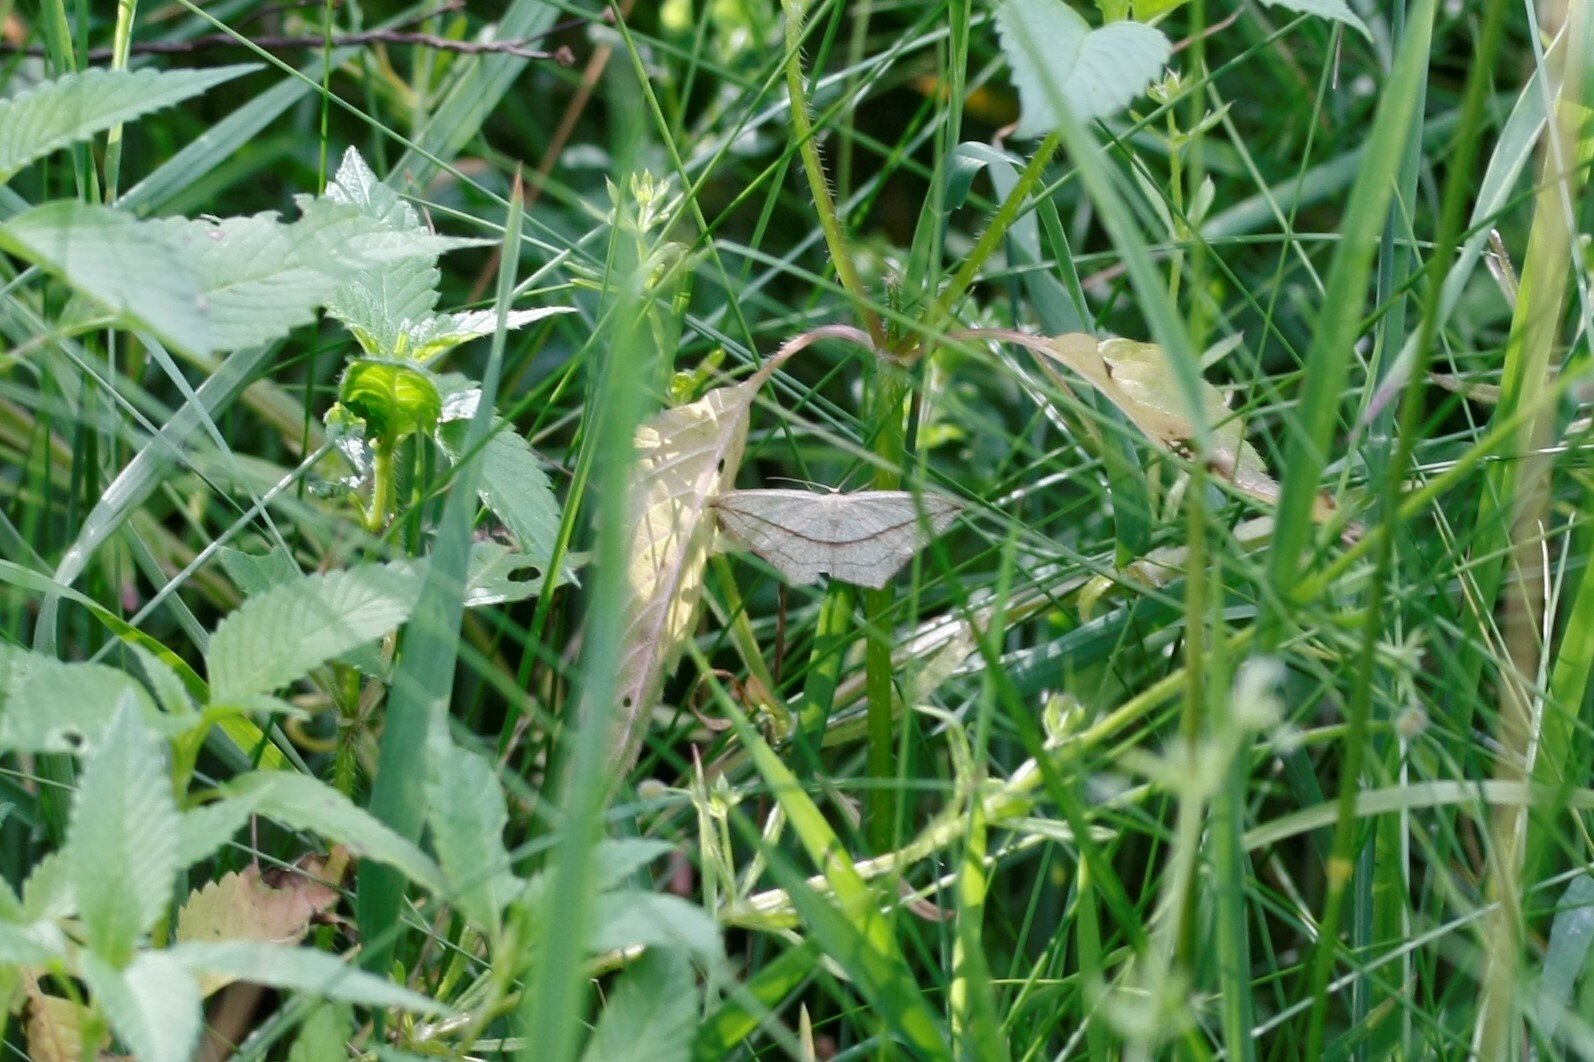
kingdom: Animalia
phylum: Arthropoda
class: Insecta
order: Lepidoptera
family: Geometridae
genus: Timandra
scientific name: Timandra comae
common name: Blood-vein
